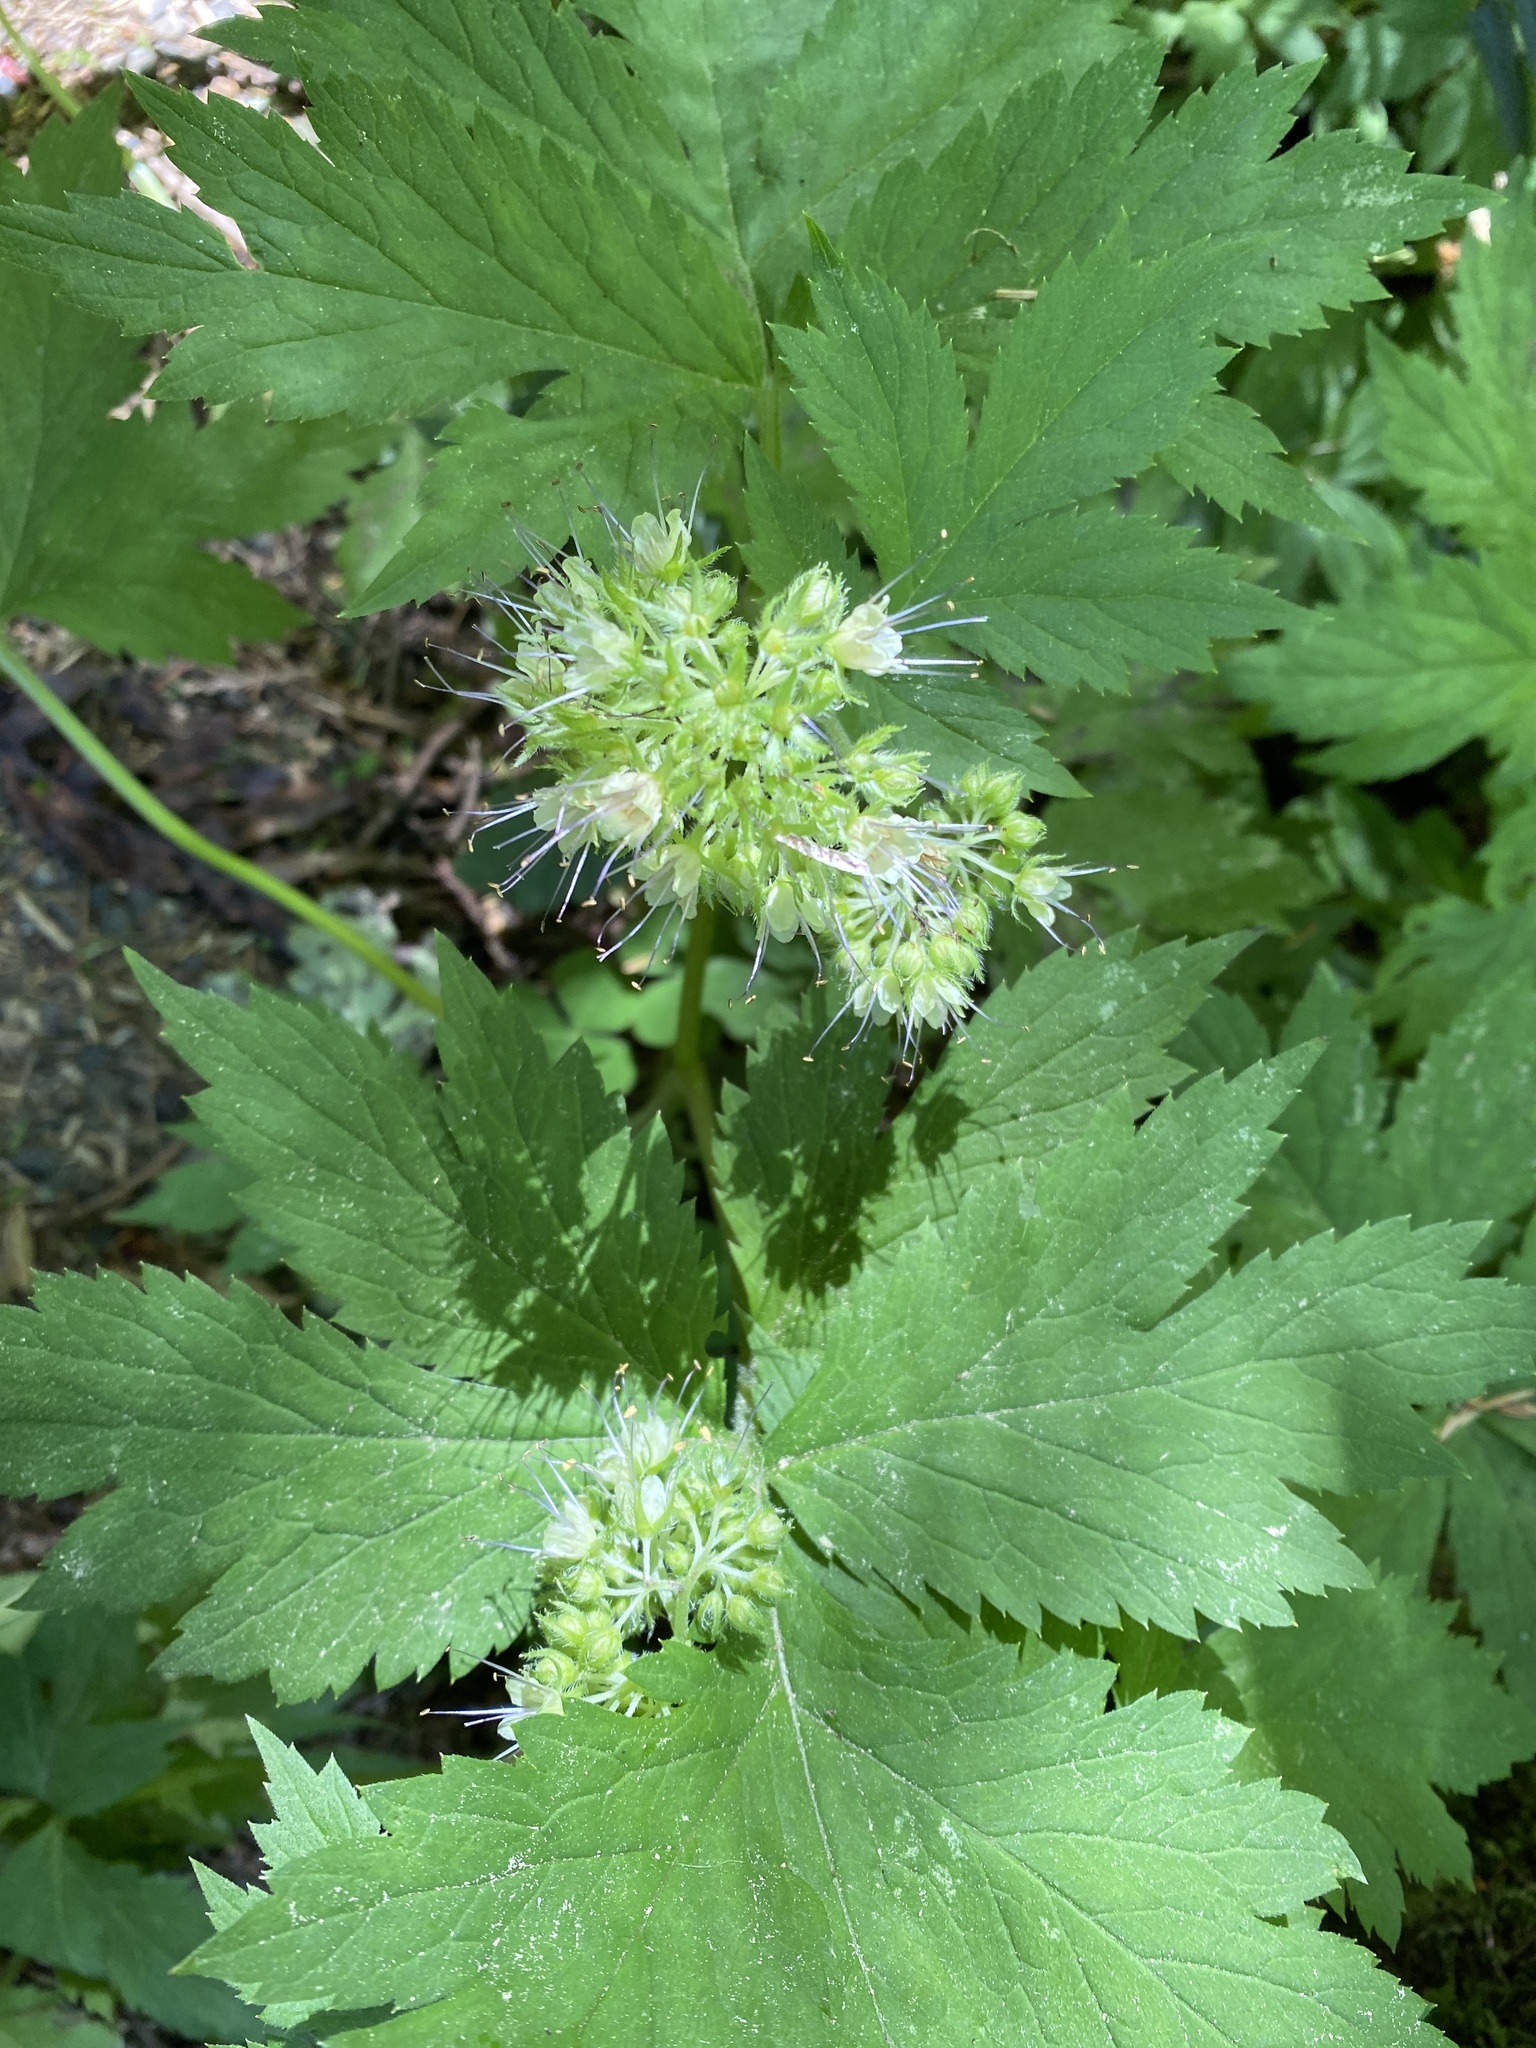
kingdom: Plantae
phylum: Tracheophyta
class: Magnoliopsida
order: Boraginales
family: Hydrophyllaceae
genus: Hydrophyllum
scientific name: Hydrophyllum tenuipes
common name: Pacific waterleaf
